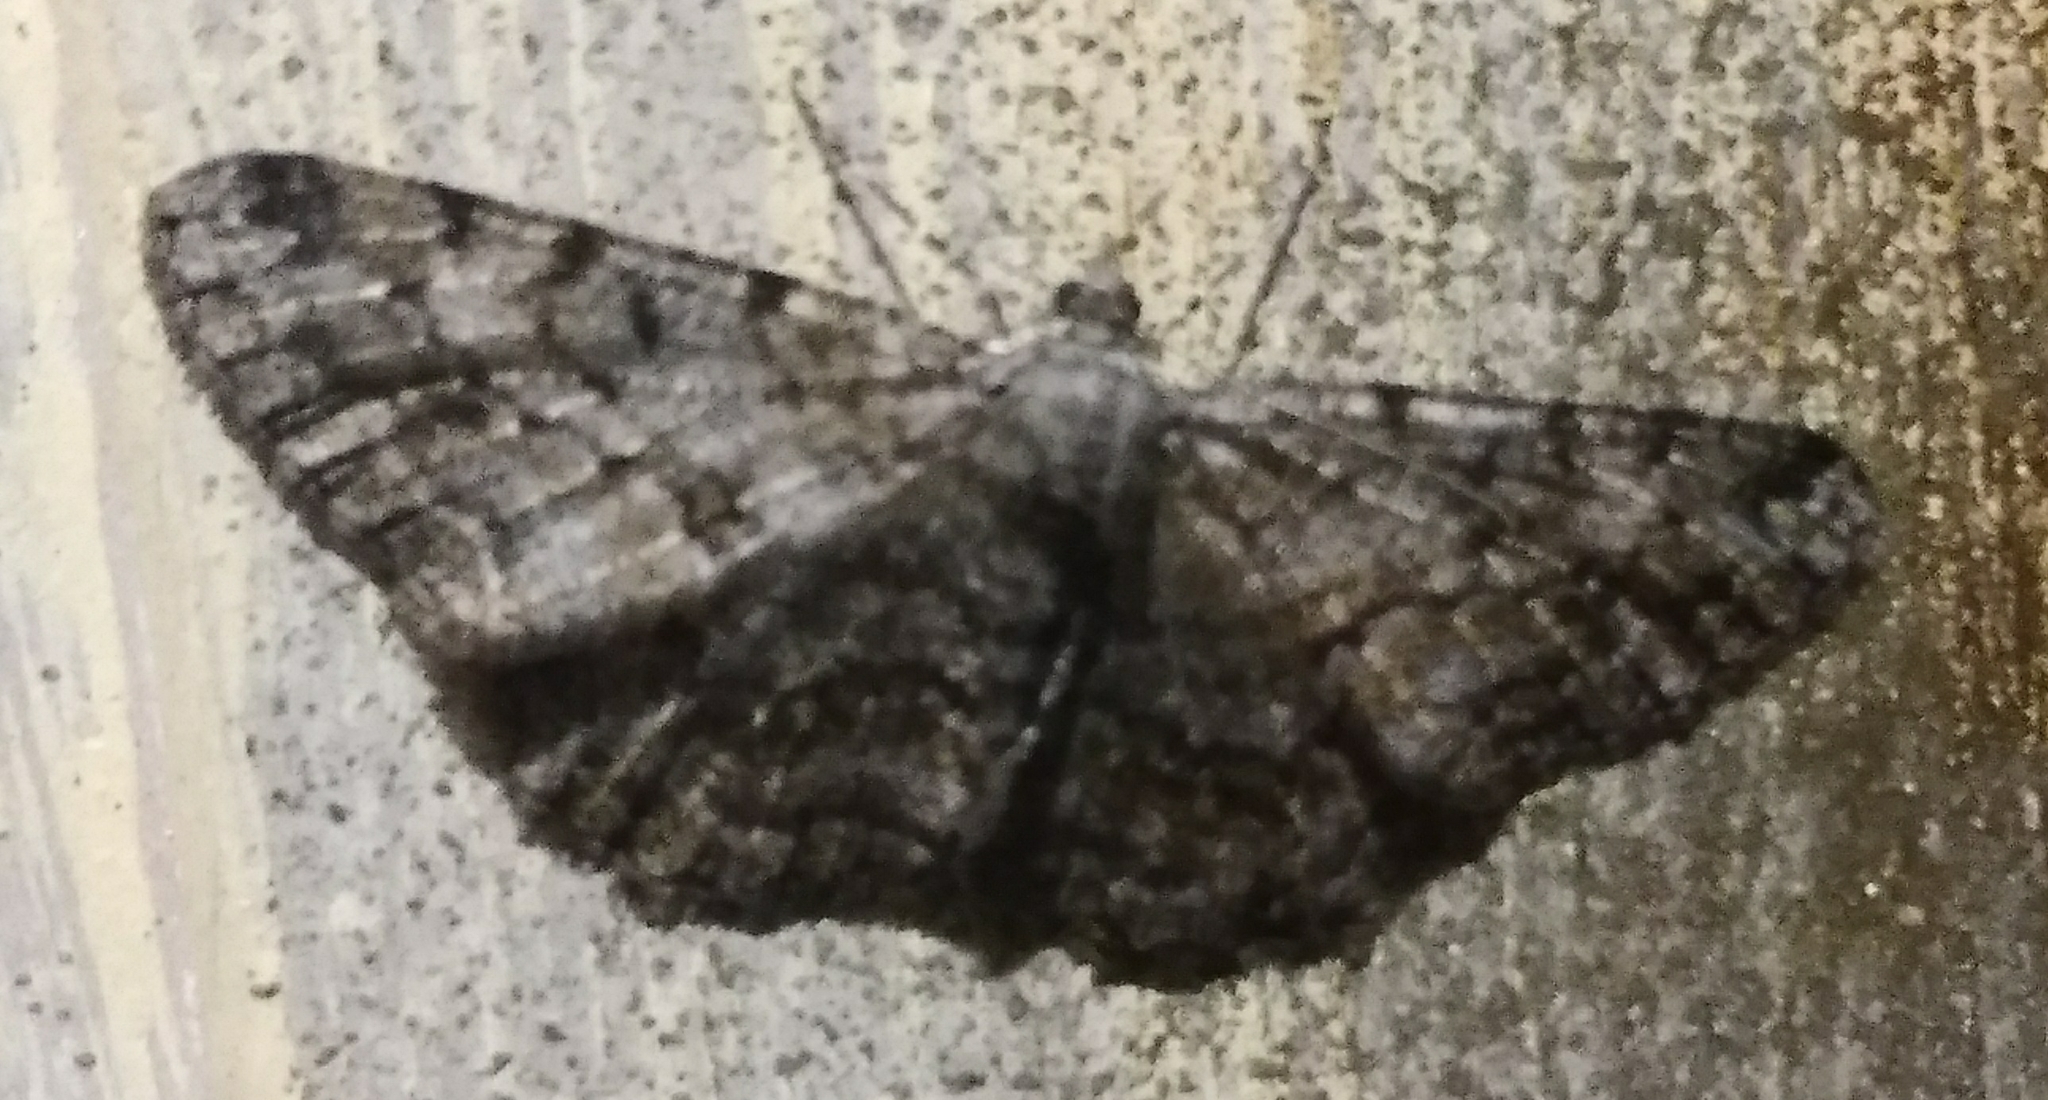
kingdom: Animalia
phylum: Arthropoda
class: Insecta
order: Lepidoptera
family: Geometridae
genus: Peribatodes
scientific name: Peribatodes rhomboidaria
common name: Willow beauty
